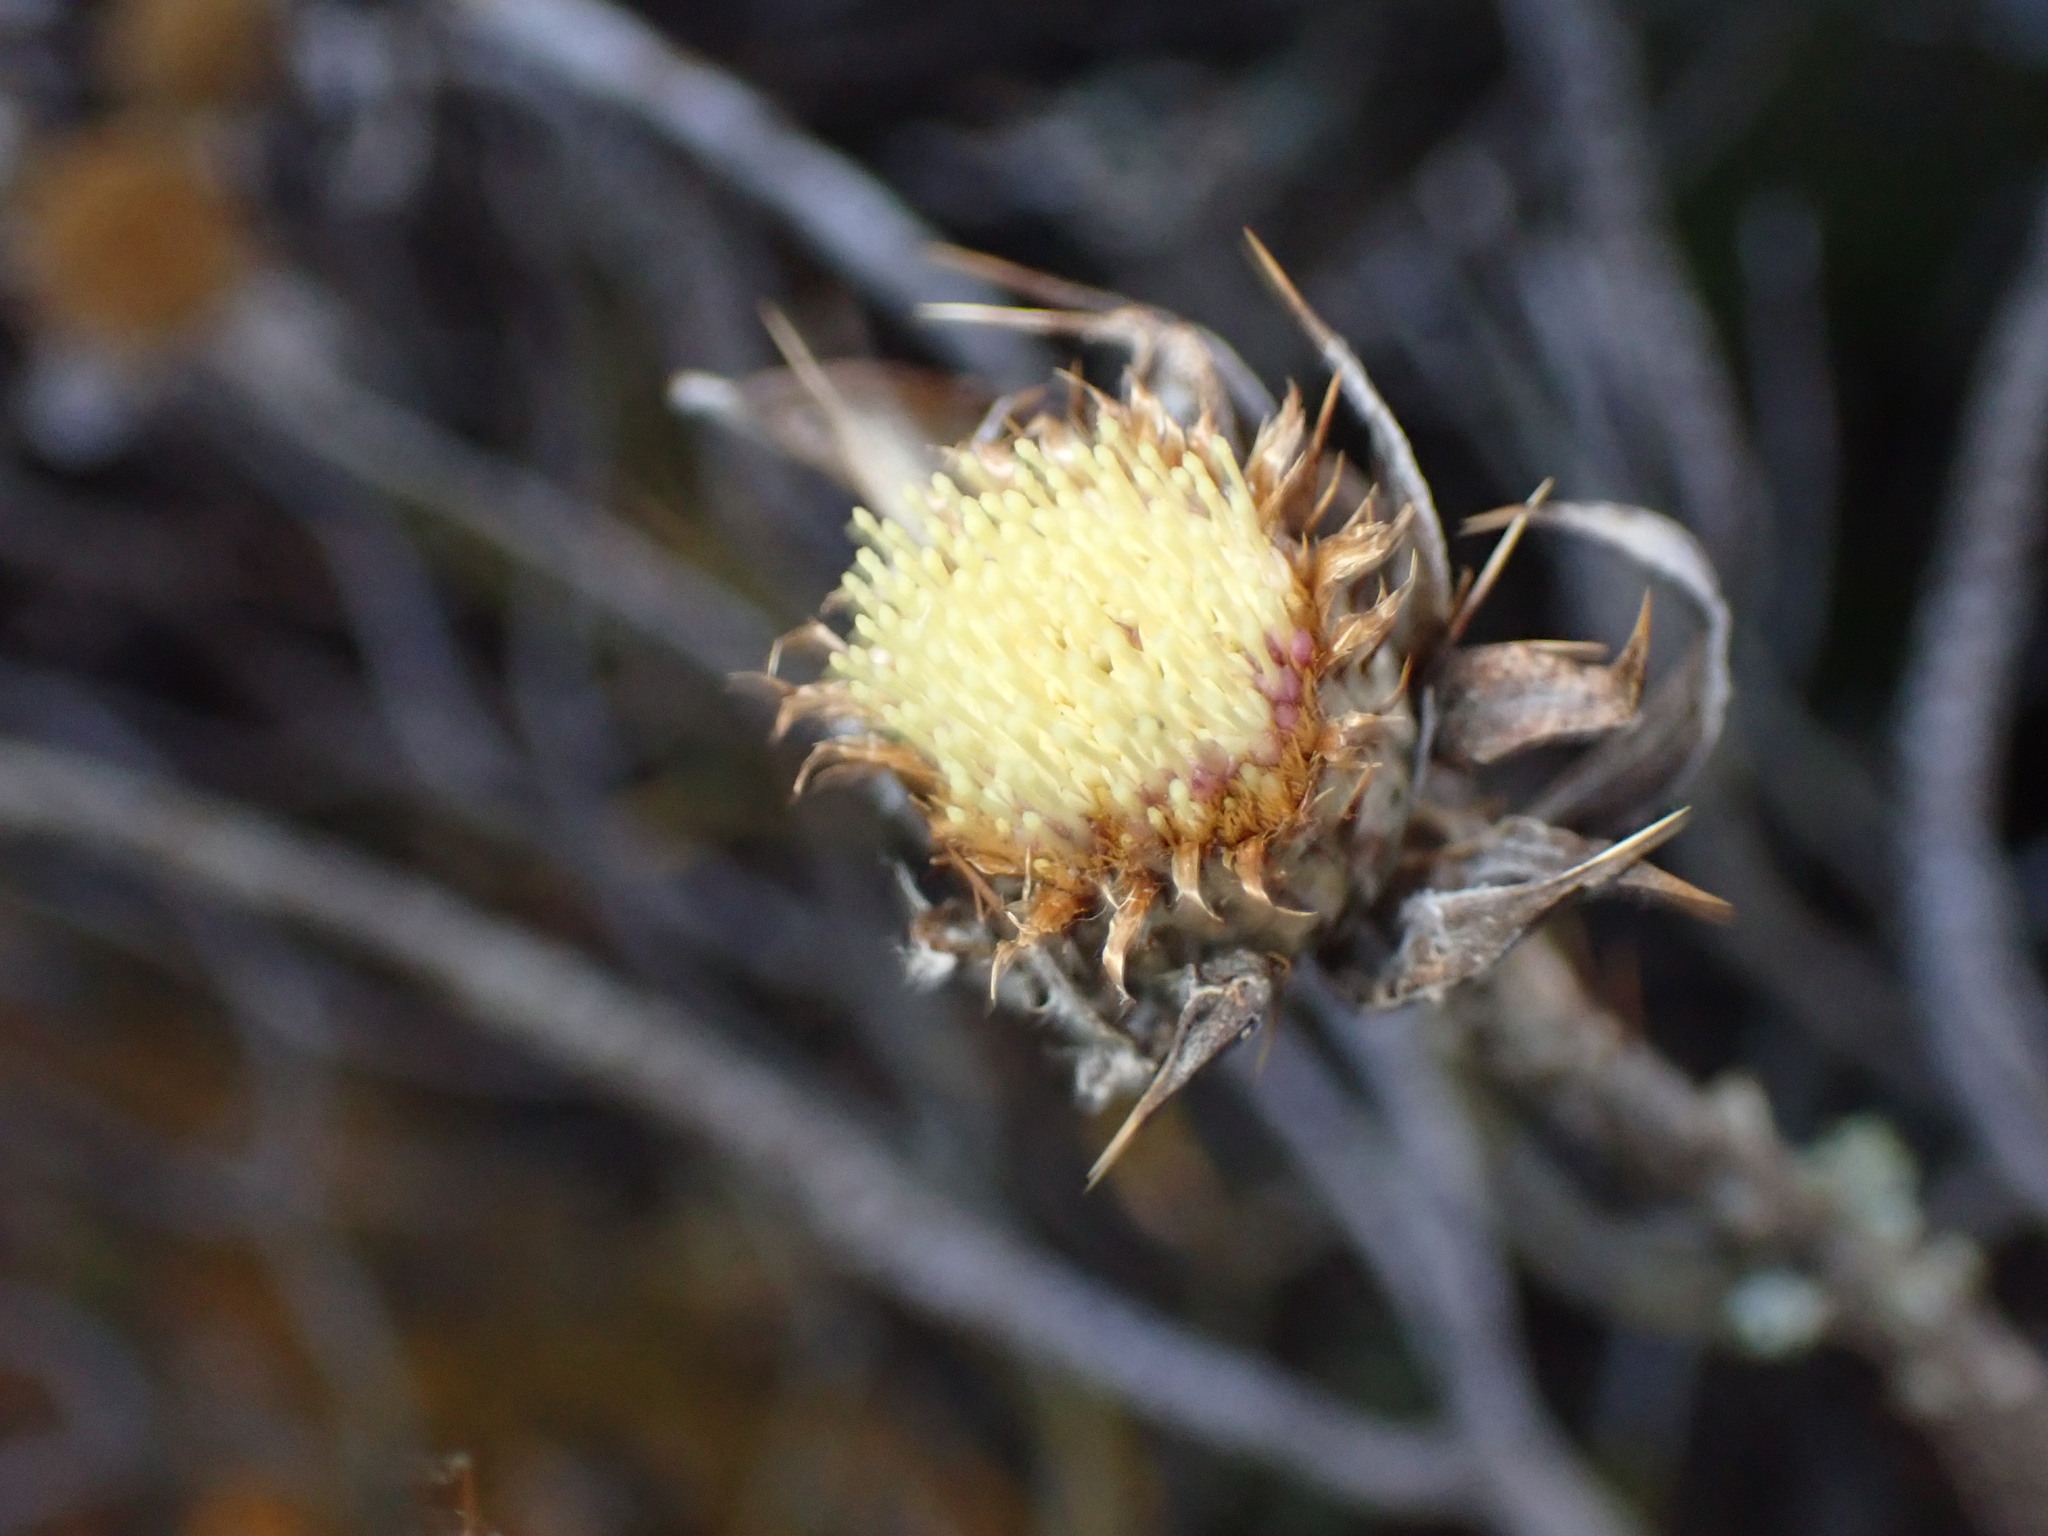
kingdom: Plantae
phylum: Tracheophyta
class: Magnoliopsida
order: Asterales
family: Asteraceae
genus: Carlina
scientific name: Carlina salicifolia
